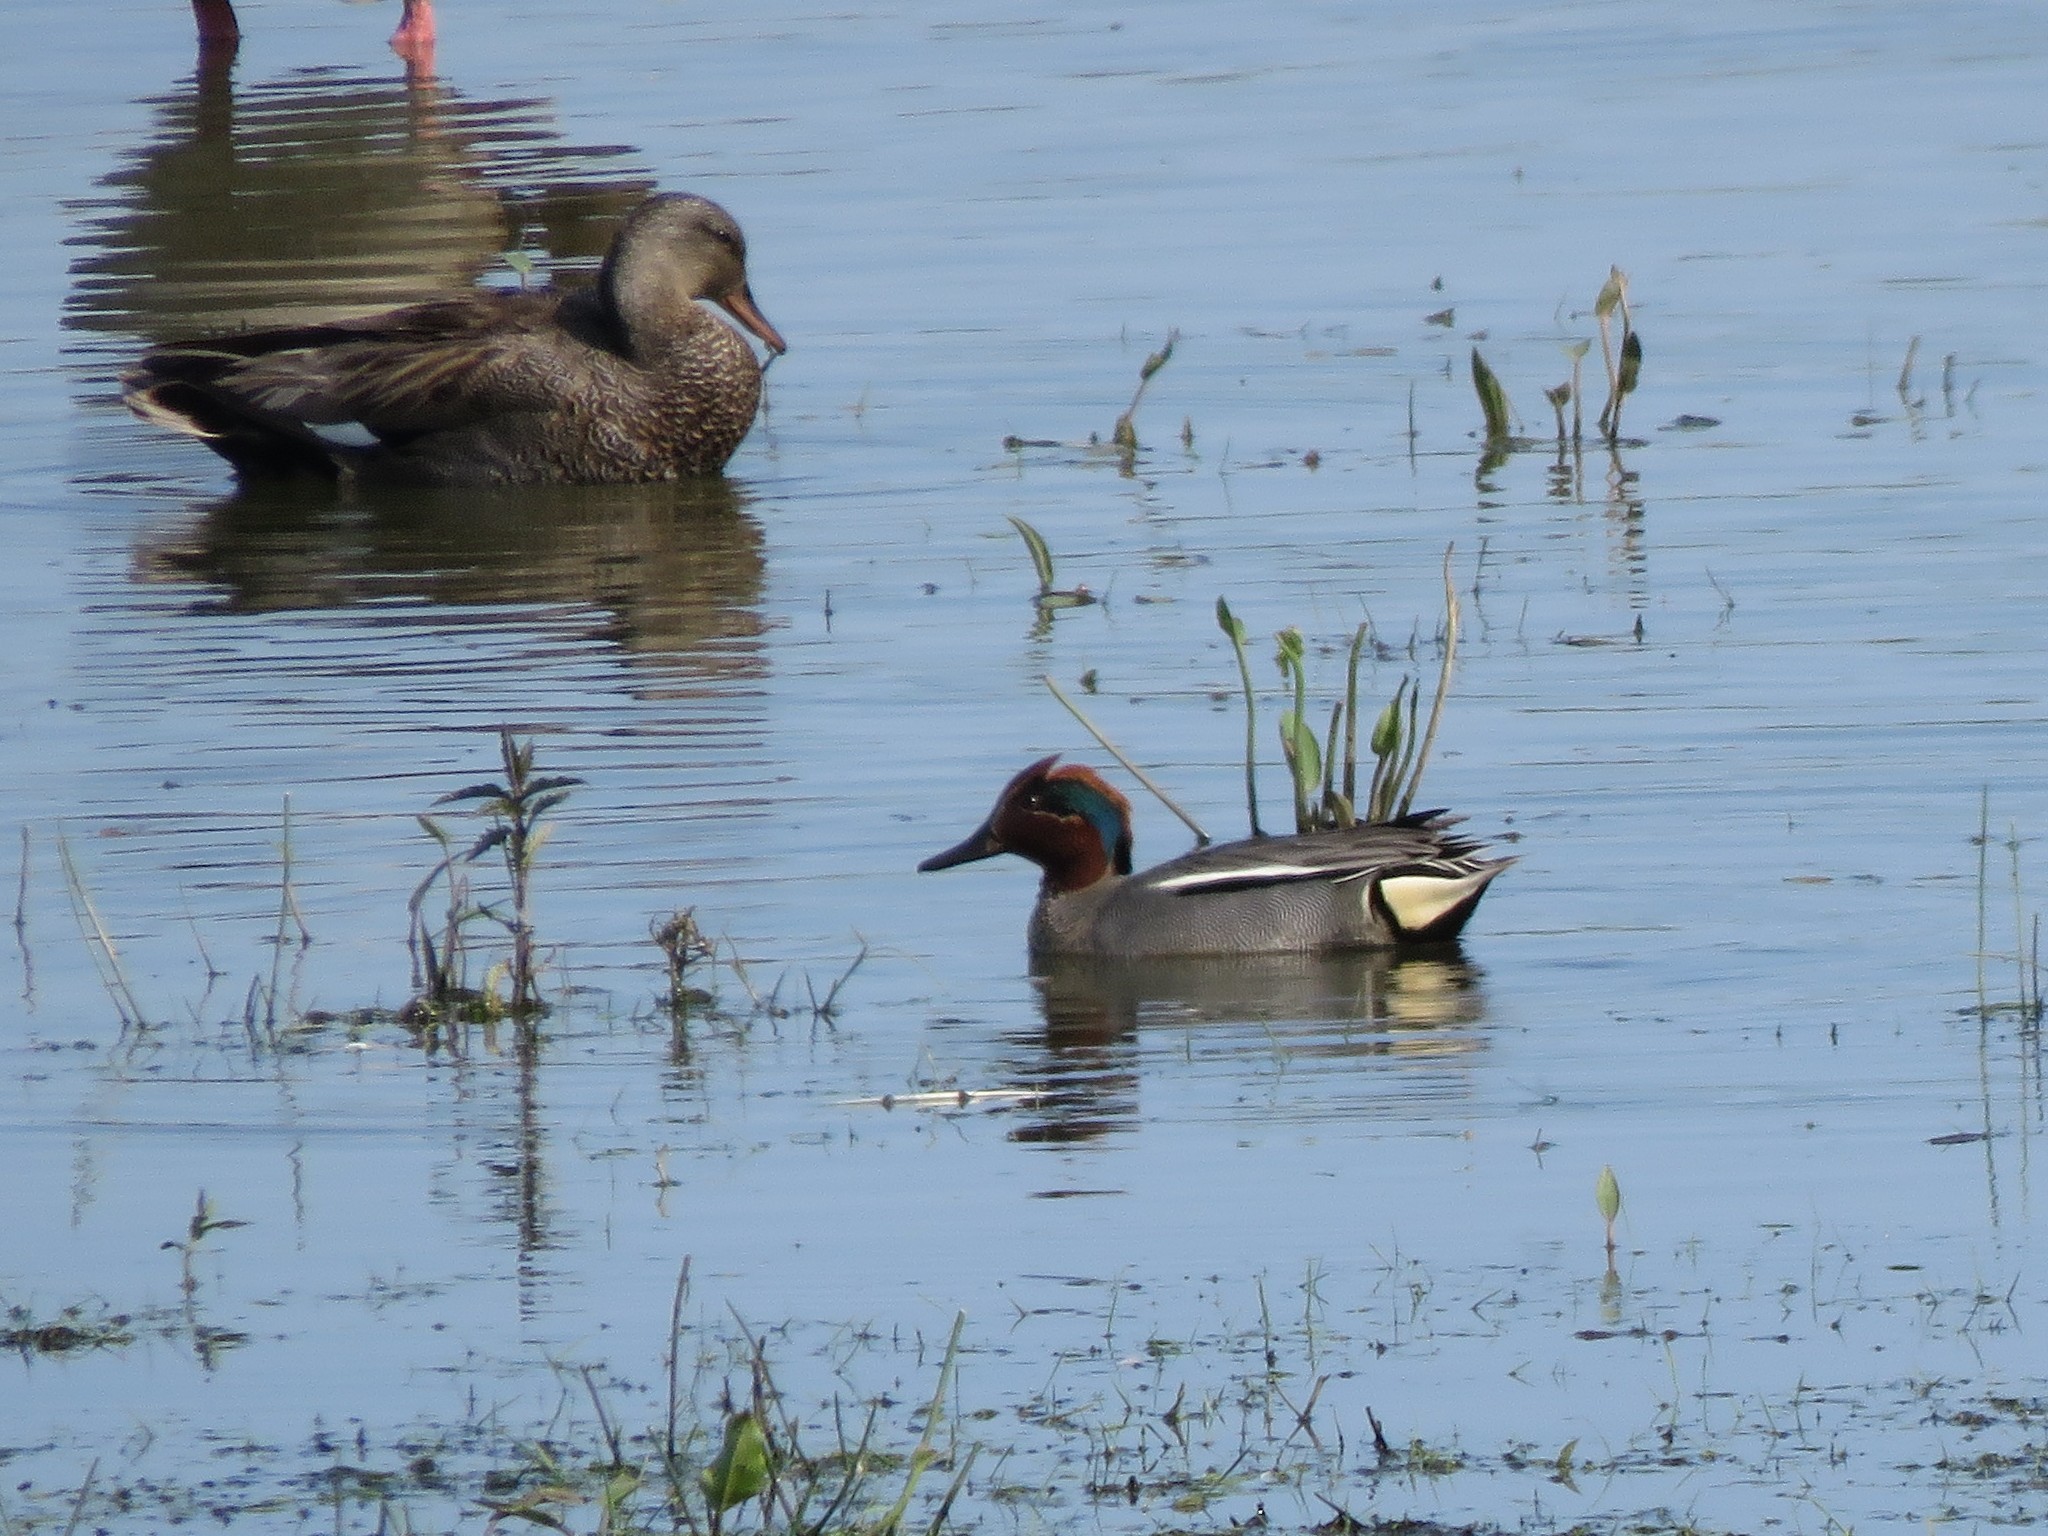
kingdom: Animalia
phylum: Chordata
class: Aves
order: Anseriformes
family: Anatidae
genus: Anas
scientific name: Anas crecca
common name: Eurasian teal
